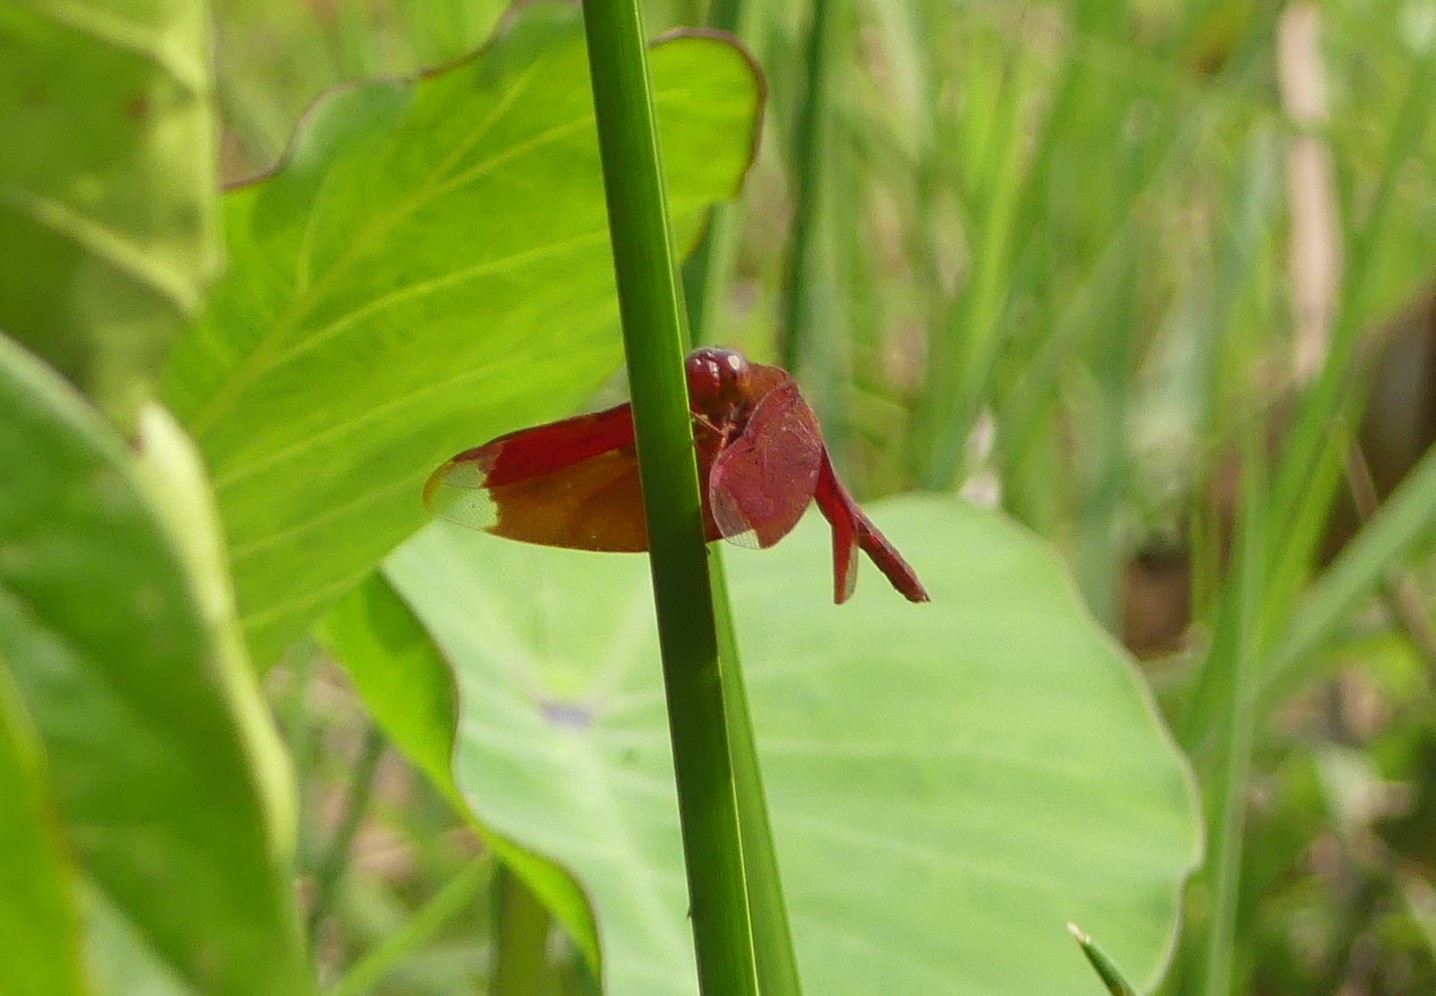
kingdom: Animalia
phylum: Arthropoda
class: Insecta
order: Odonata
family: Libellulidae
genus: Neurothemis
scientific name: Neurothemis fulvia
